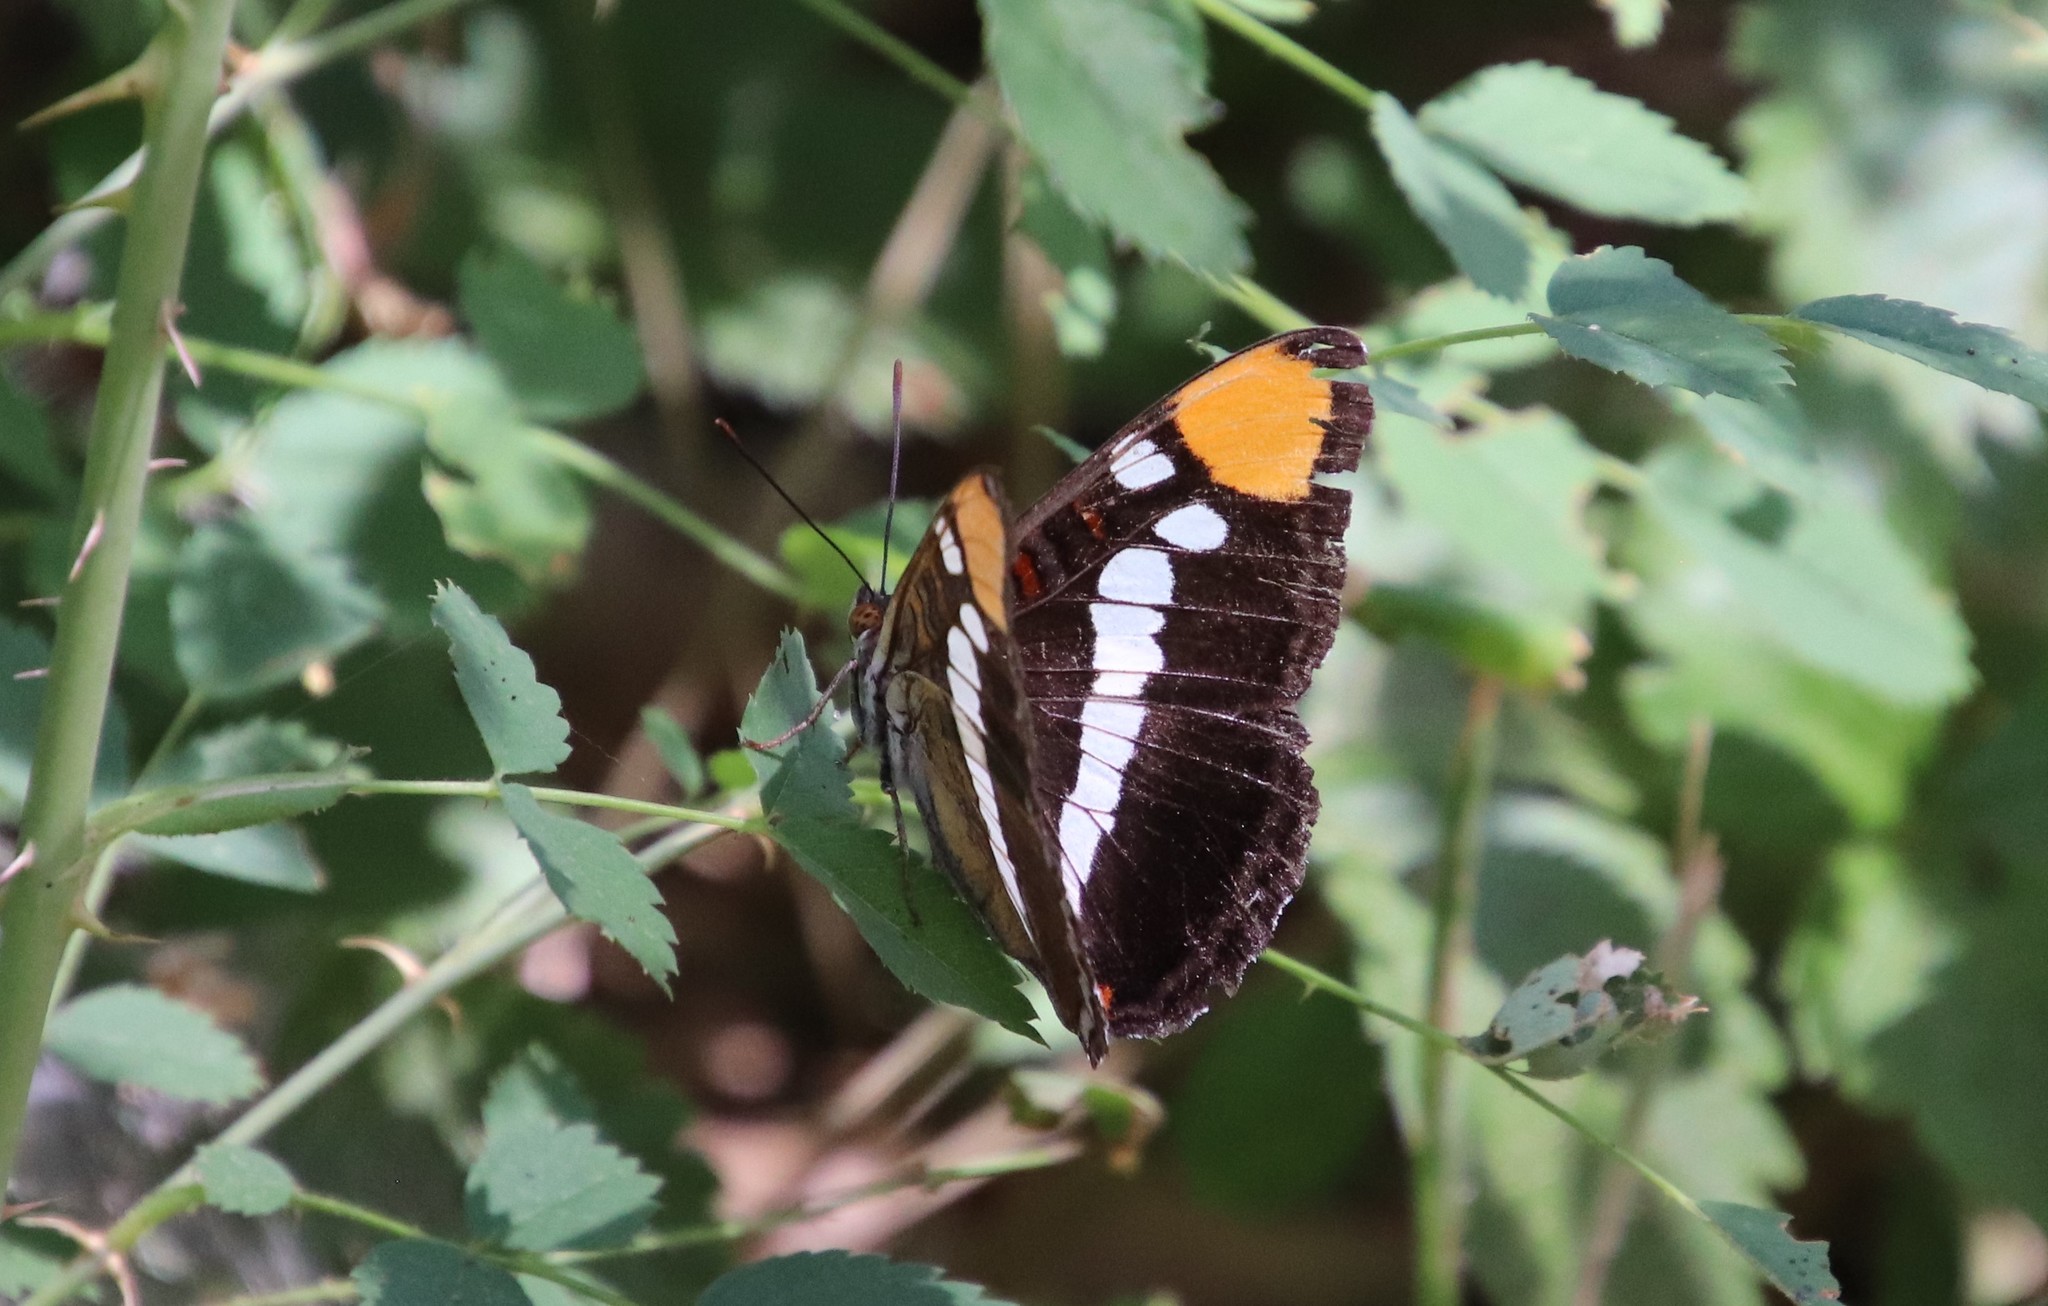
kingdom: Animalia
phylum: Arthropoda
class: Insecta
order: Lepidoptera
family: Nymphalidae
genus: Limenitis
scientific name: Limenitis bredowii
